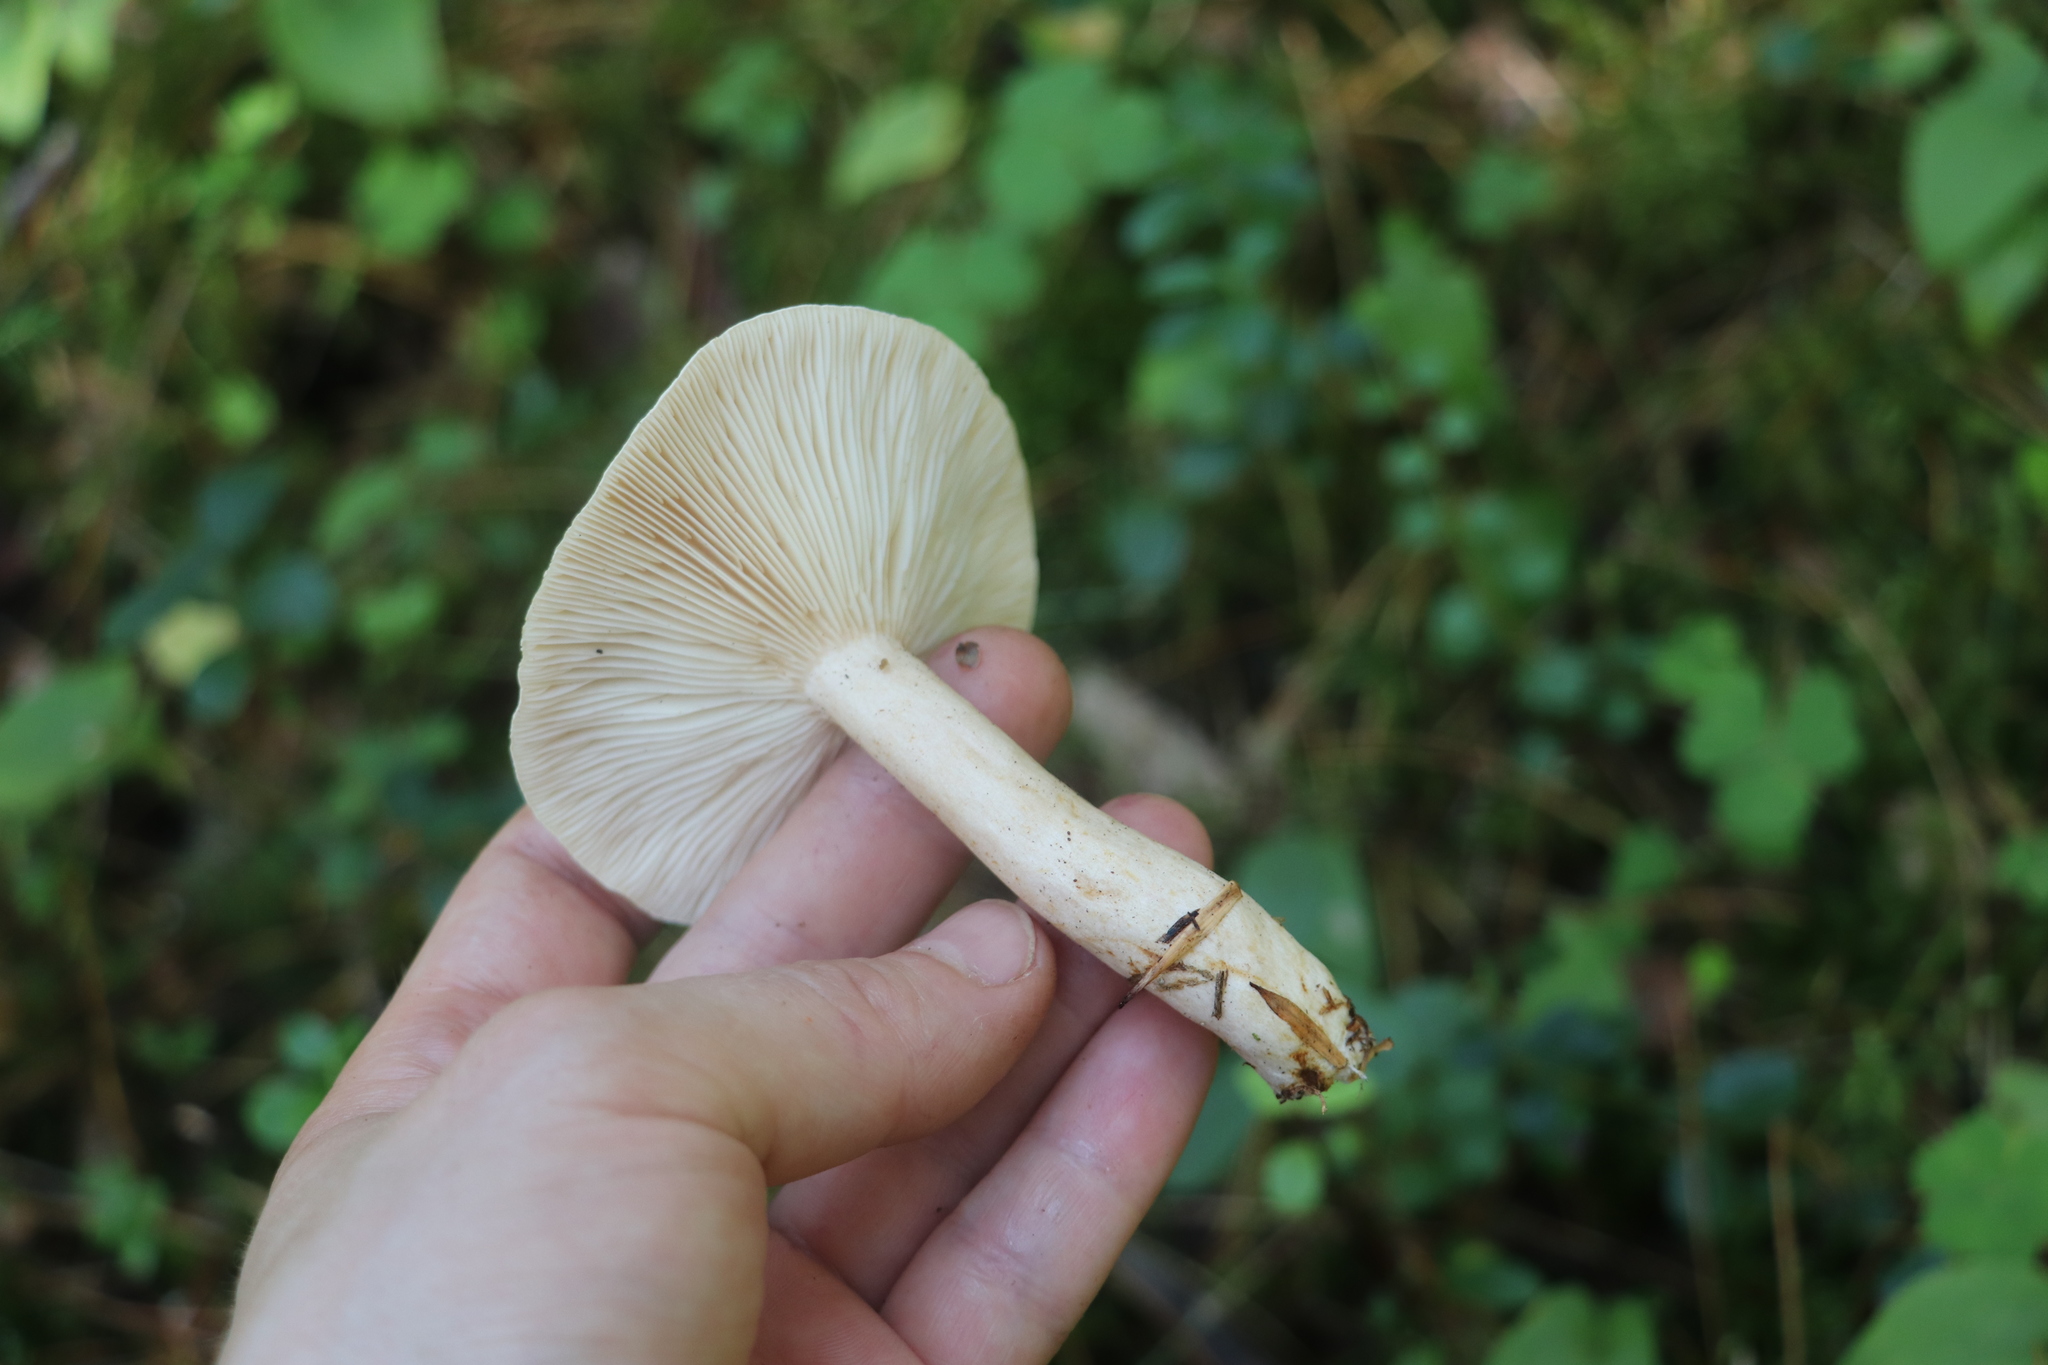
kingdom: Fungi
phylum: Basidiomycota
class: Agaricomycetes
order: Russulales
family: Russulaceae
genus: Lactarius
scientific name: Lactarius trivialis
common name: Tacked milkcap
